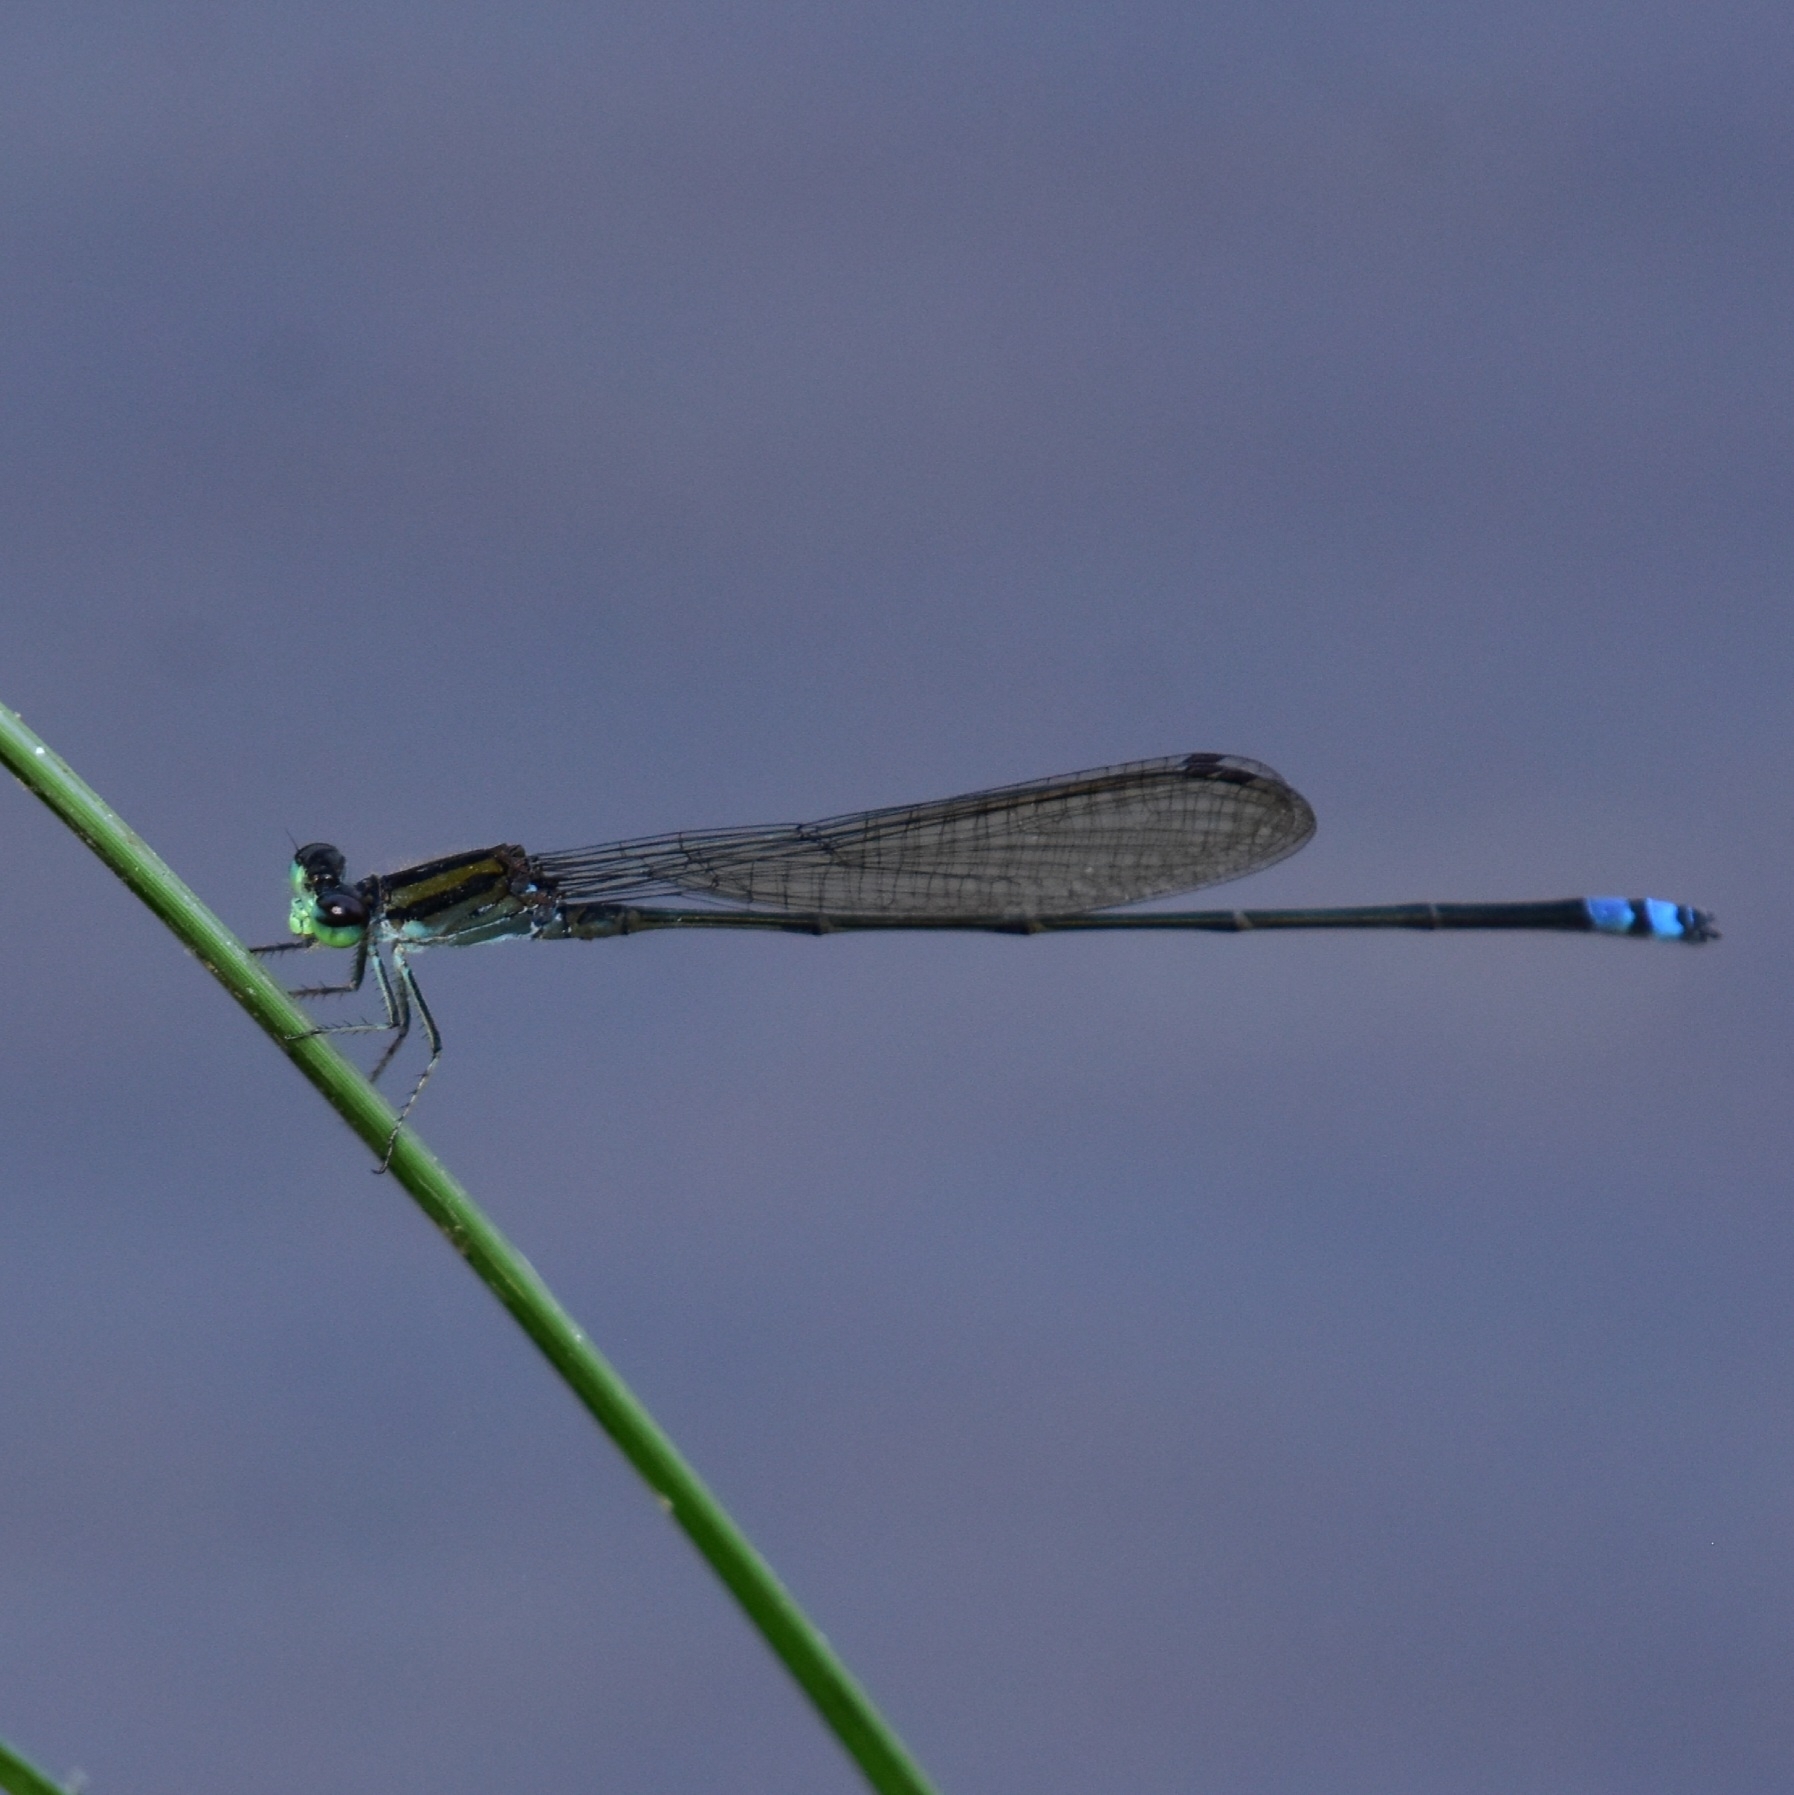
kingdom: Animalia
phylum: Arthropoda
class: Insecta
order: Odonata
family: Coenagrionidae
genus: Pseudagrion
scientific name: Pseudagrion indicum
